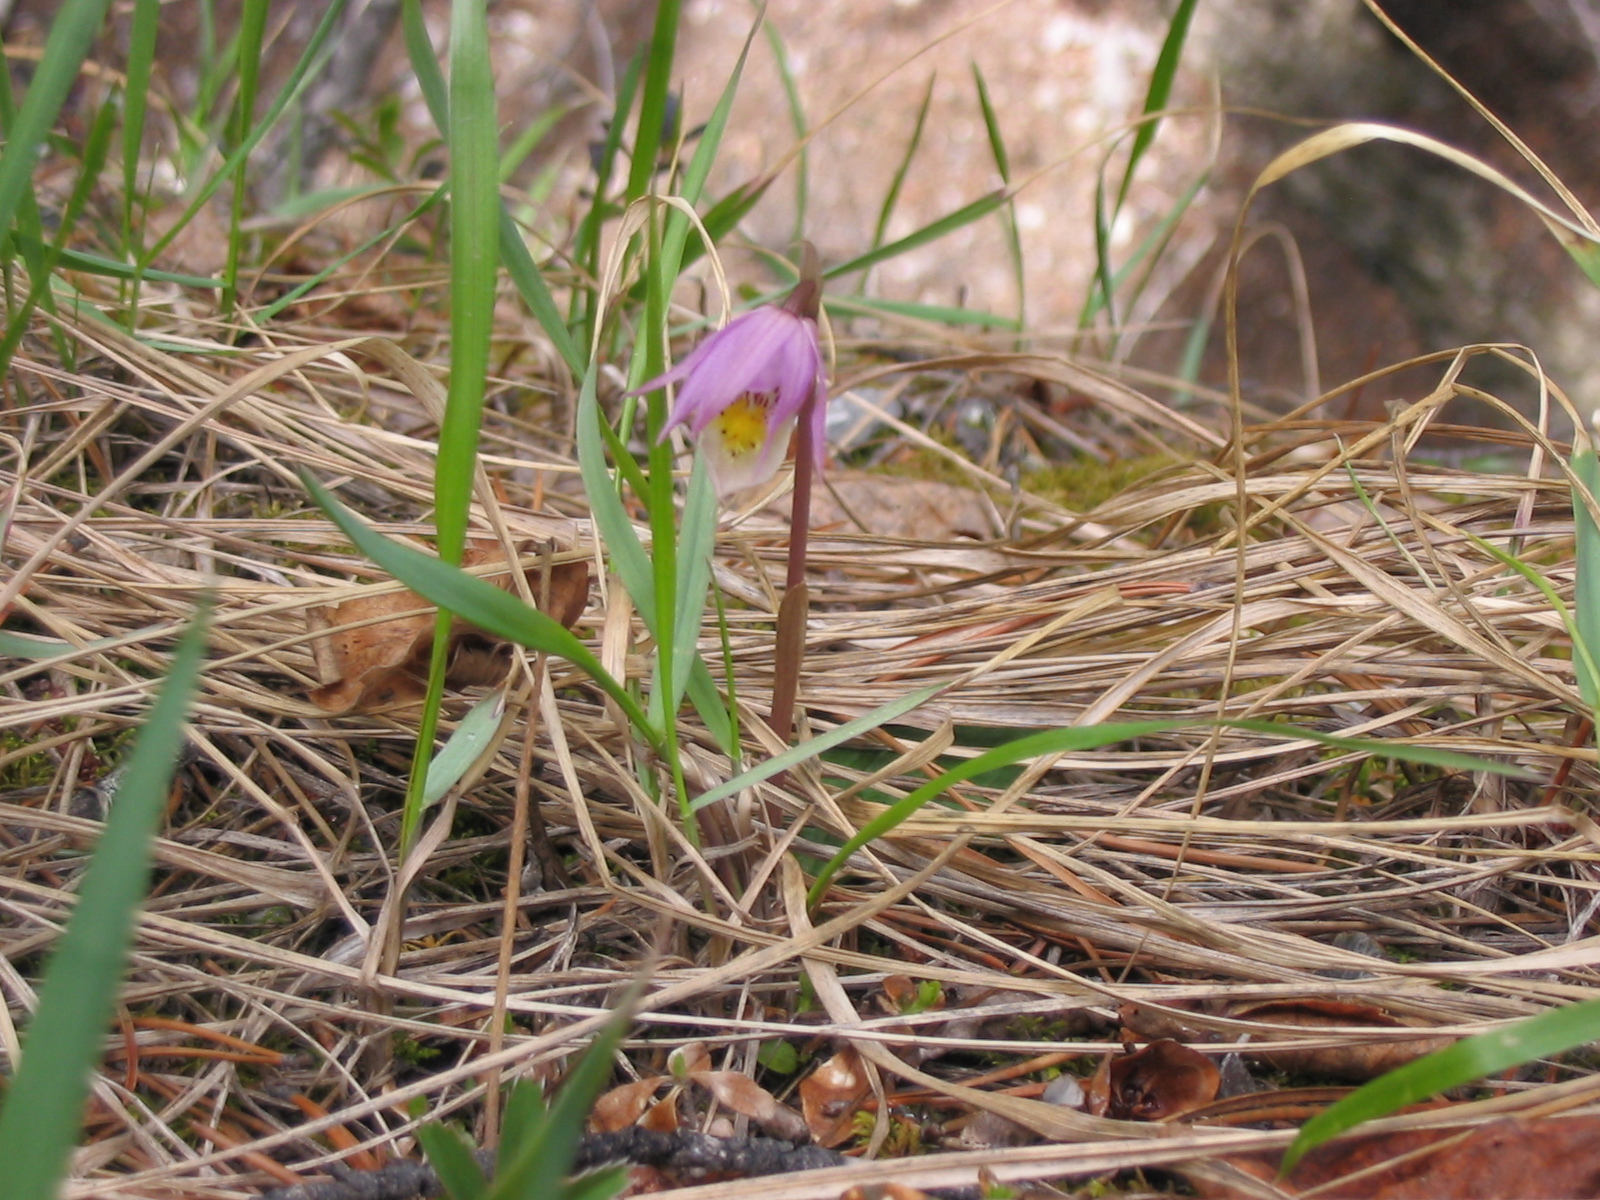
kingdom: Plantae
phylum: Tracheophyta
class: Liliopsida
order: Asparagales
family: Orchidaceae
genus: Calypso
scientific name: Calypso bulbosa
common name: Calypso
